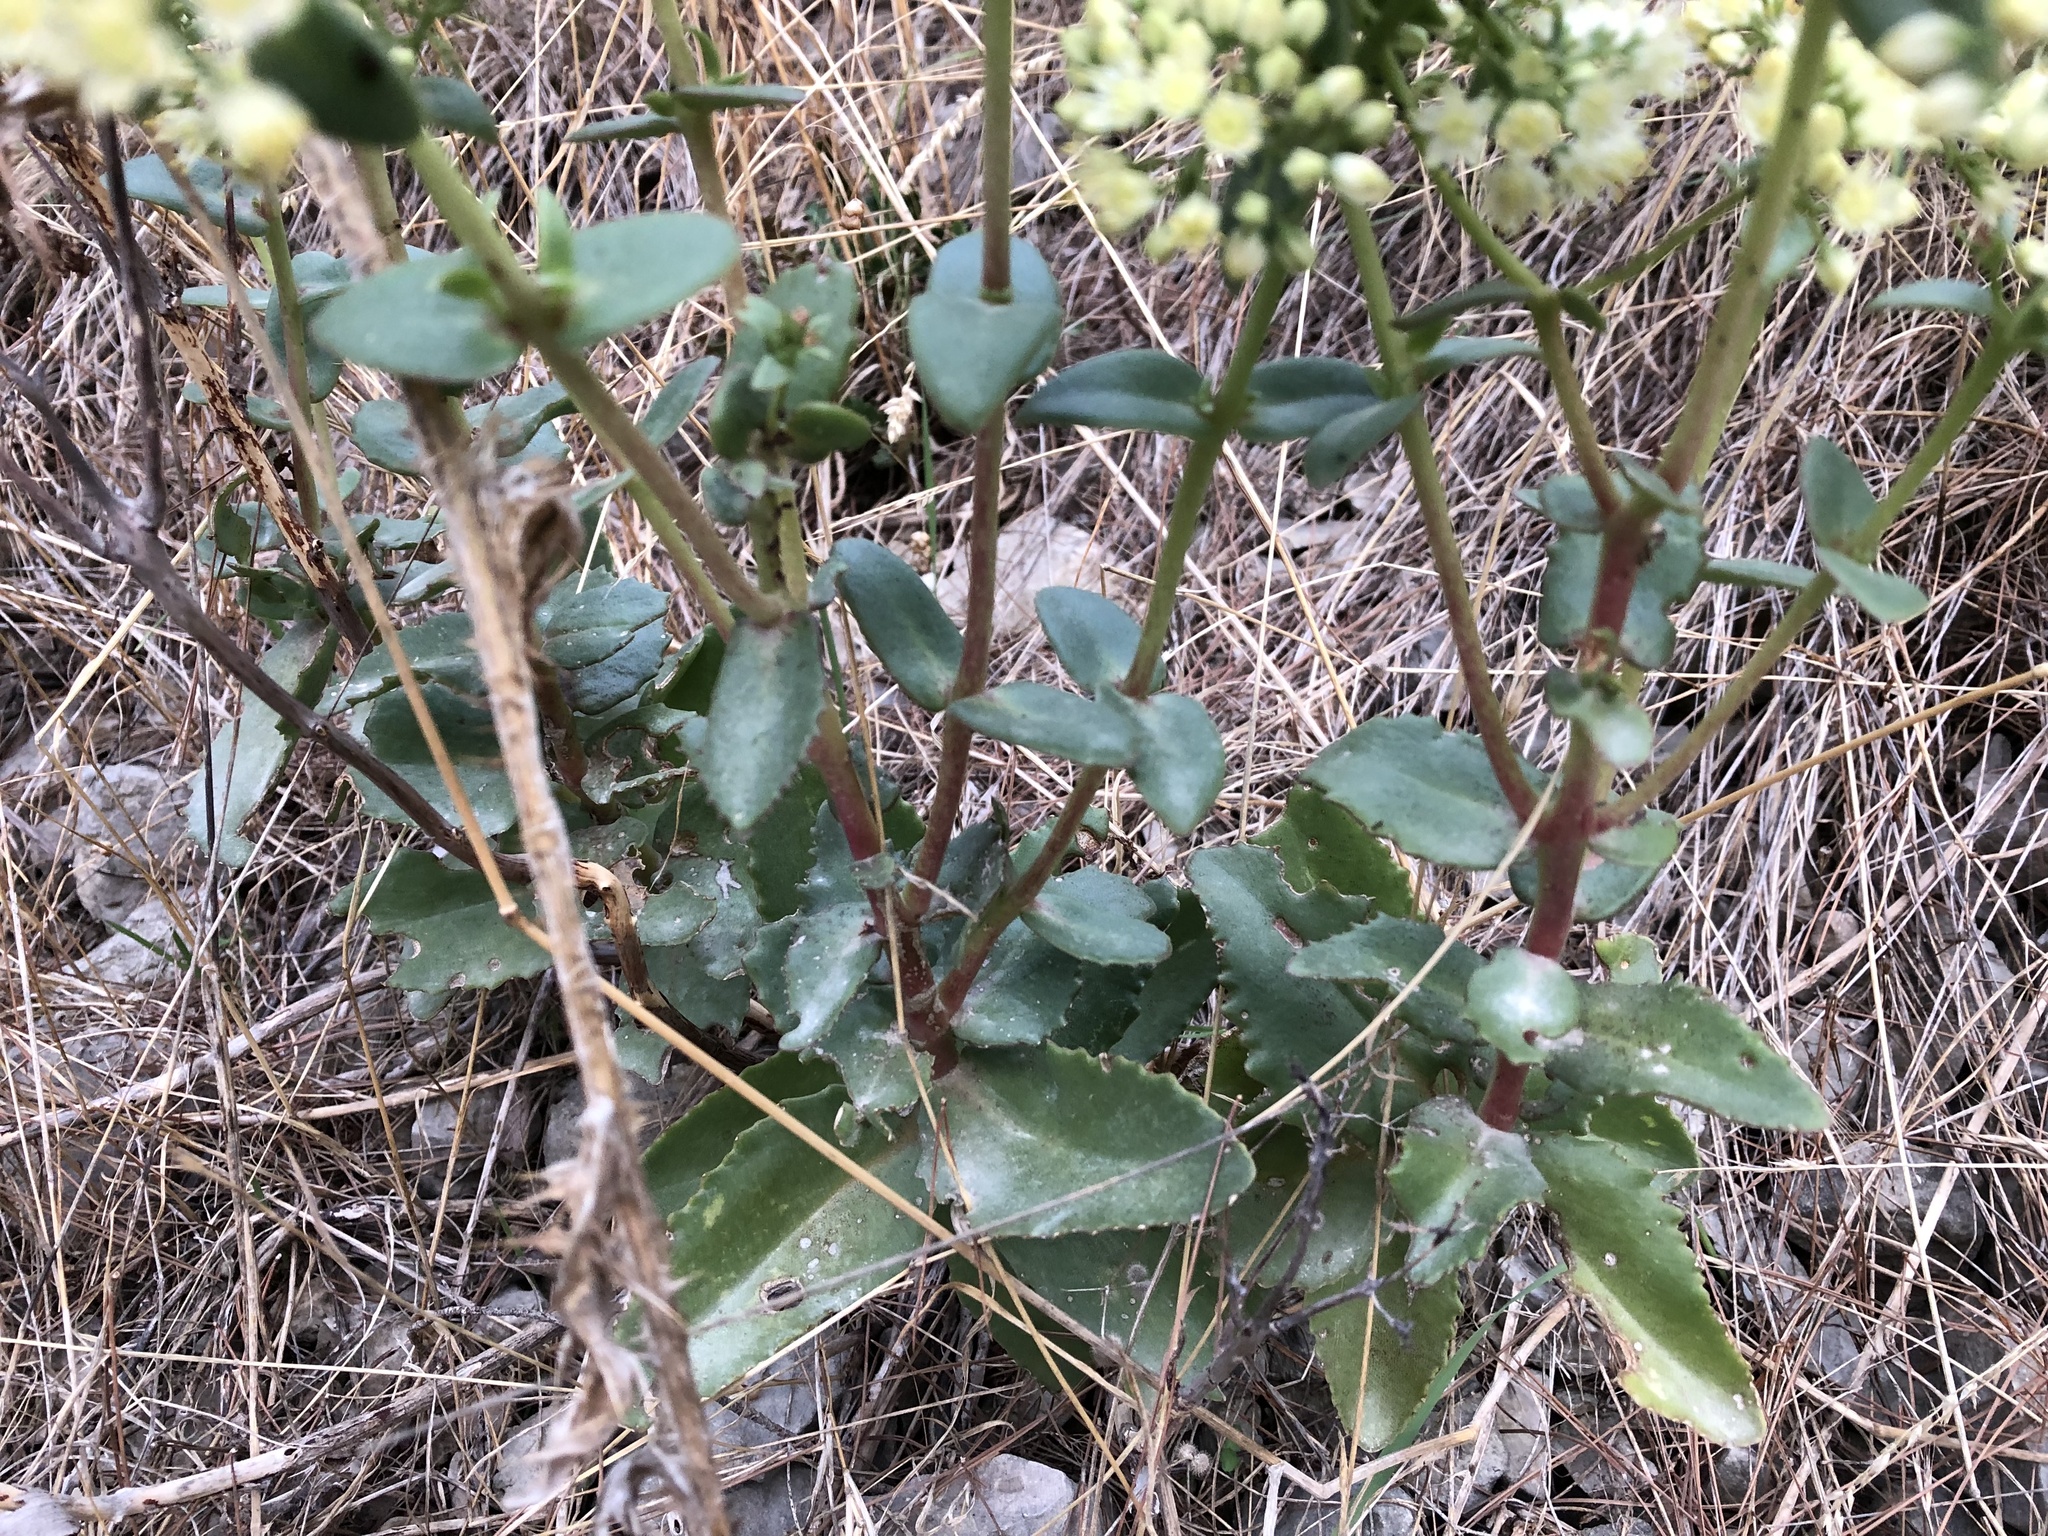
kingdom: Plantae
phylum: Tracheophyta
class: Magnoliopsida
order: Saxifragales
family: Crassulaceae
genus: Hylotelephium
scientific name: Hylotelephium maximum
